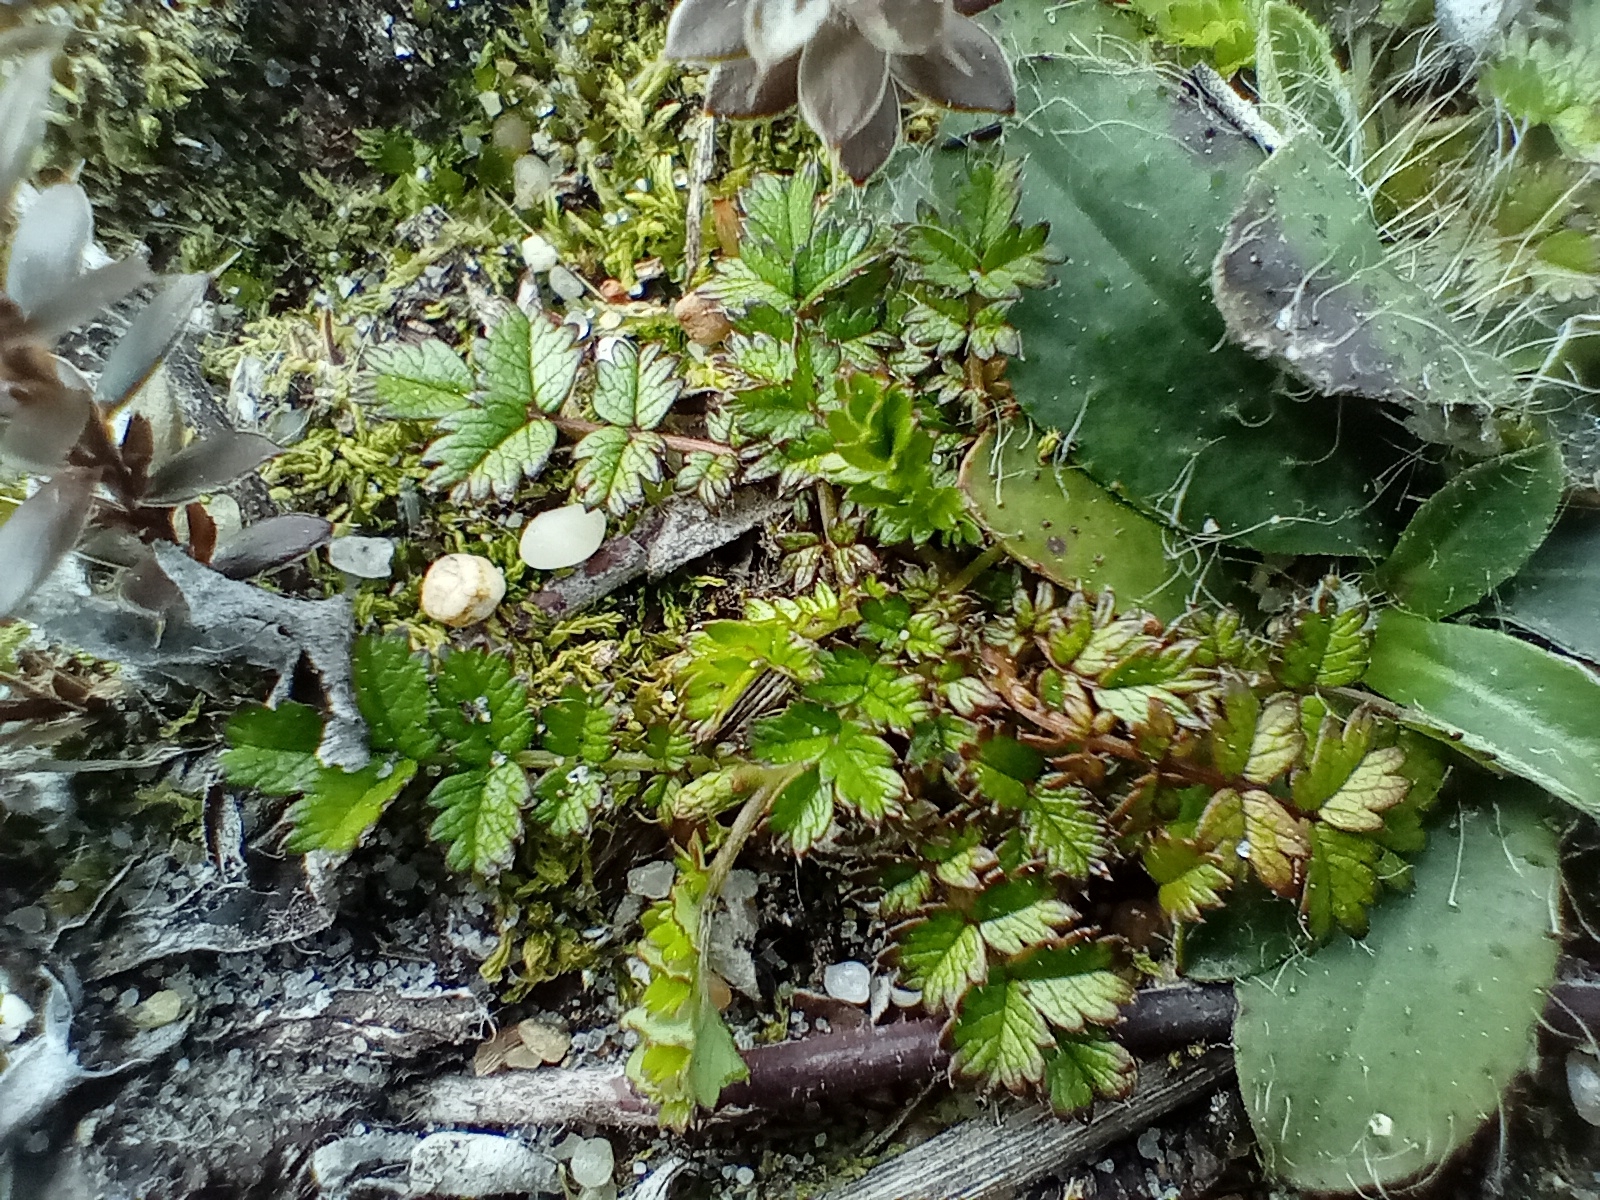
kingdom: Plantae
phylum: Tracheophyta
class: Magnoliopsida
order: Rosales
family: Rosaceae
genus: Acaena
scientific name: Acaena microphylla
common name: New zealand-bur
